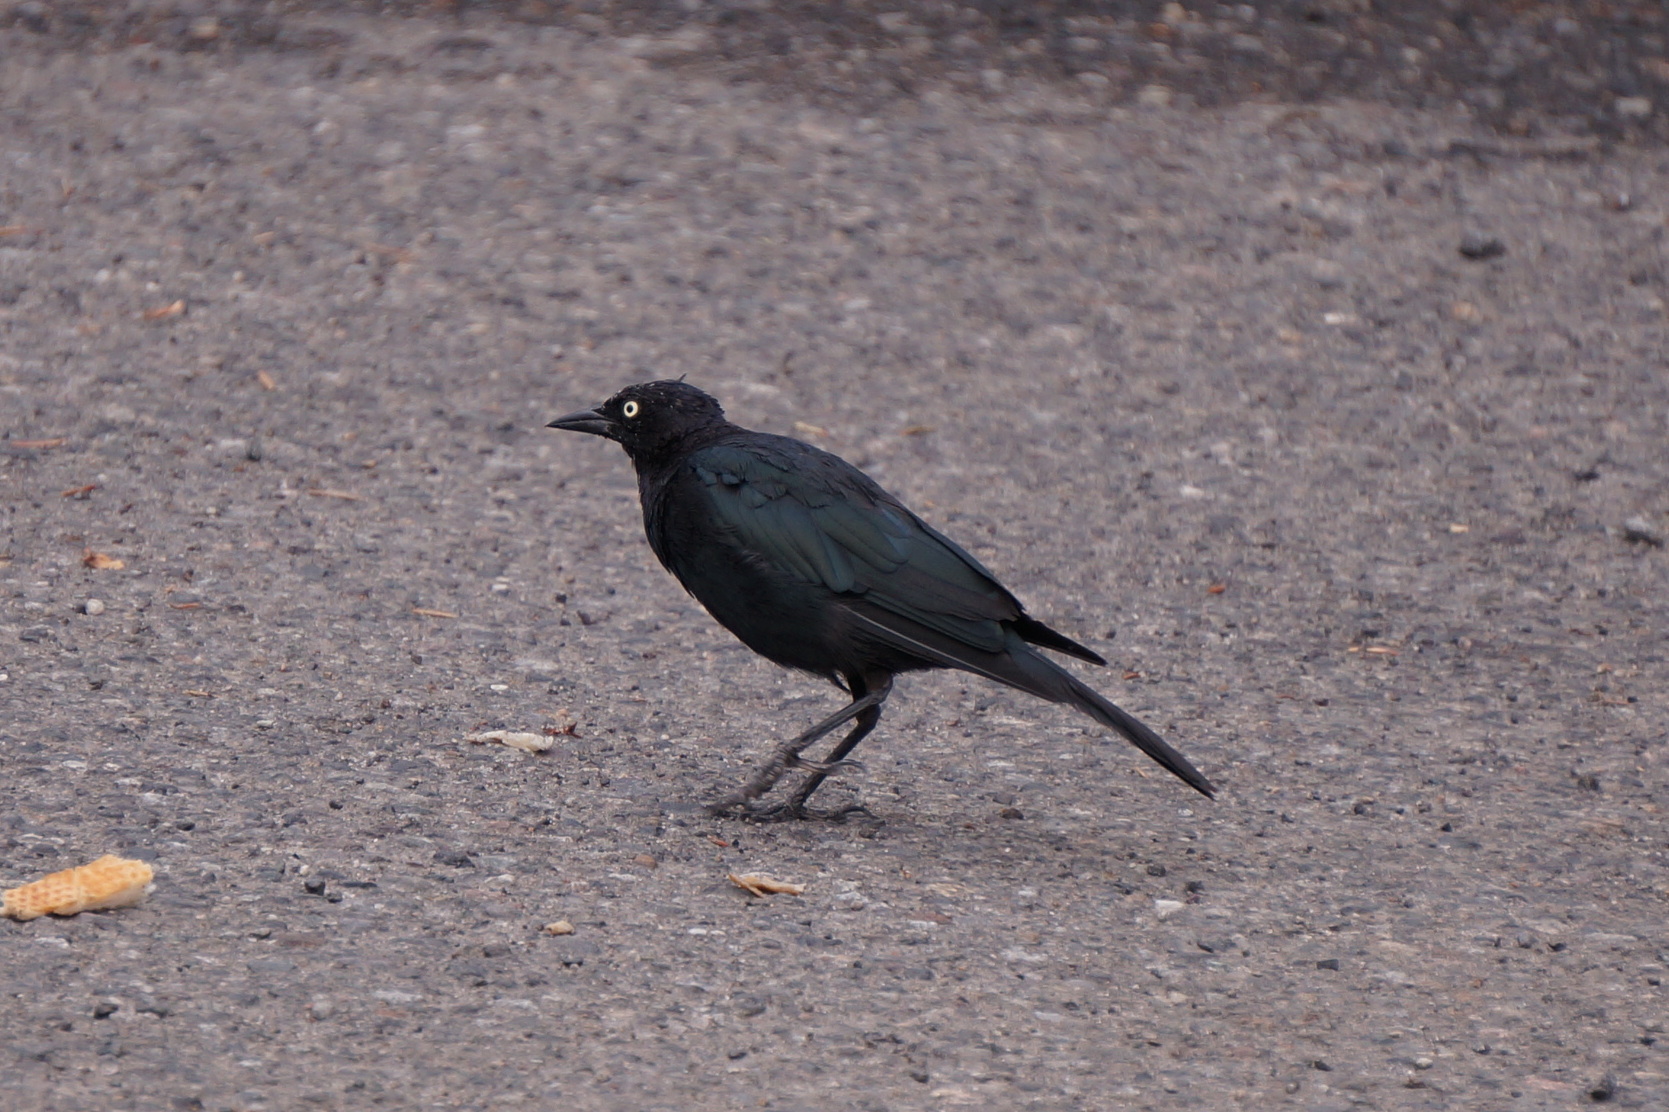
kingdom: Animalia
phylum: Chordata
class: Aves
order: Passeriformes
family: Icteridae
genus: Euphagus
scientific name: Euphagus cyanocephalus
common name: Brewer's blackbird
